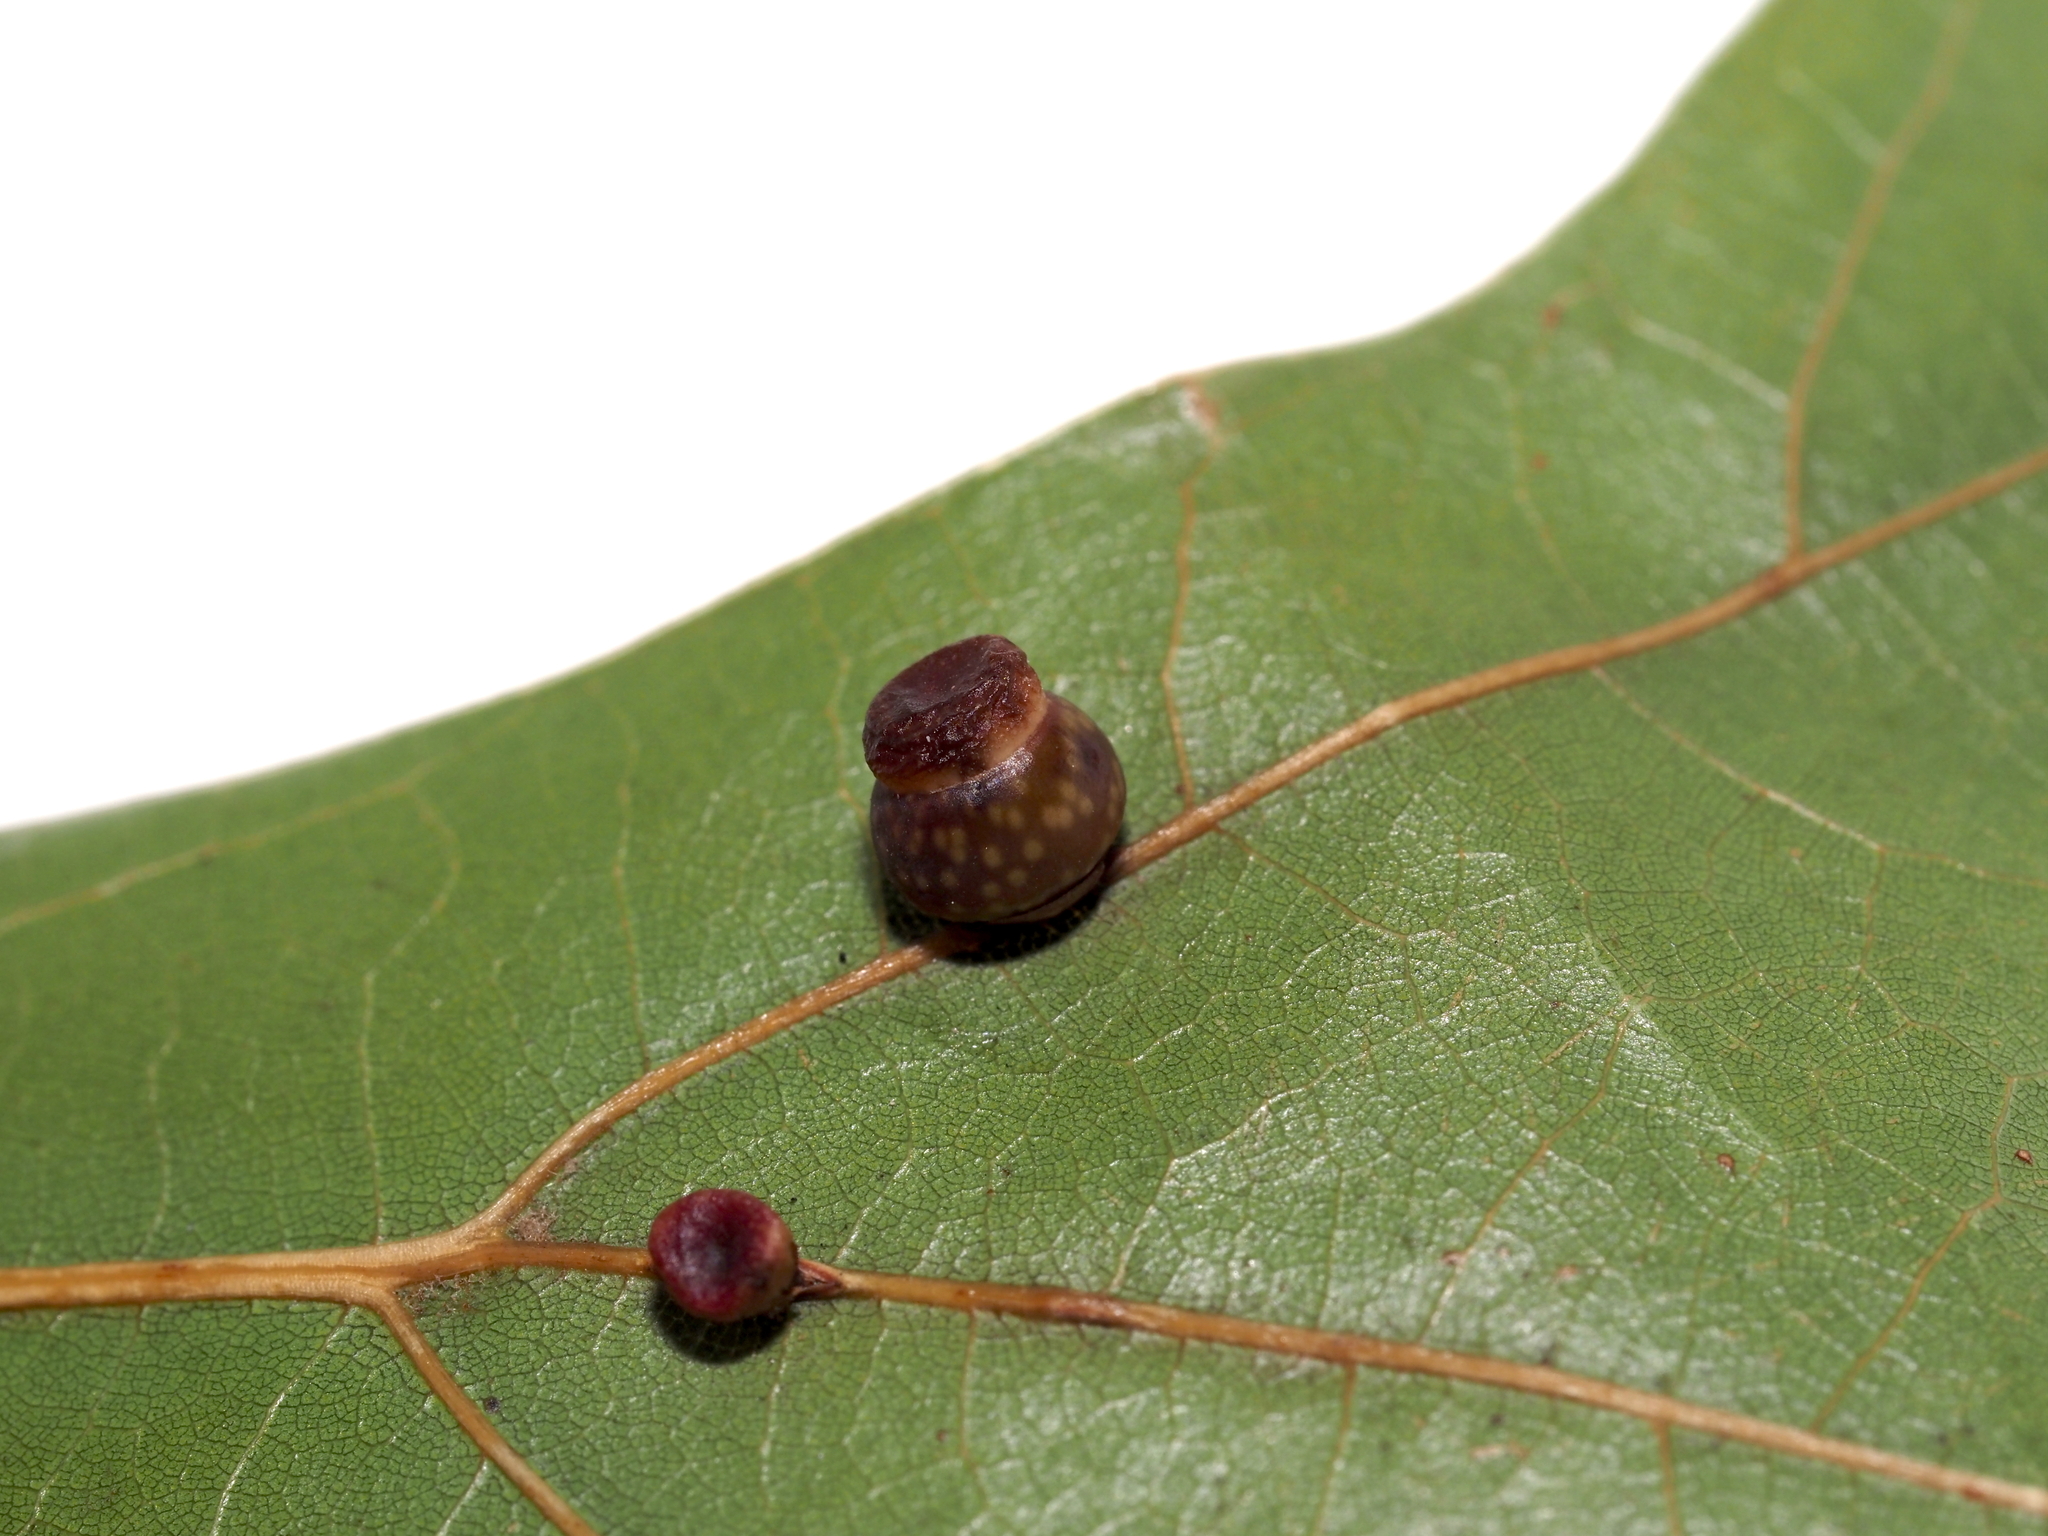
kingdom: Animalia
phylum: Arthropoda
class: Insecta
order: Hymenoptera
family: Cynipidae
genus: Kokkocynips
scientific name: Kokkocynips rileyi
